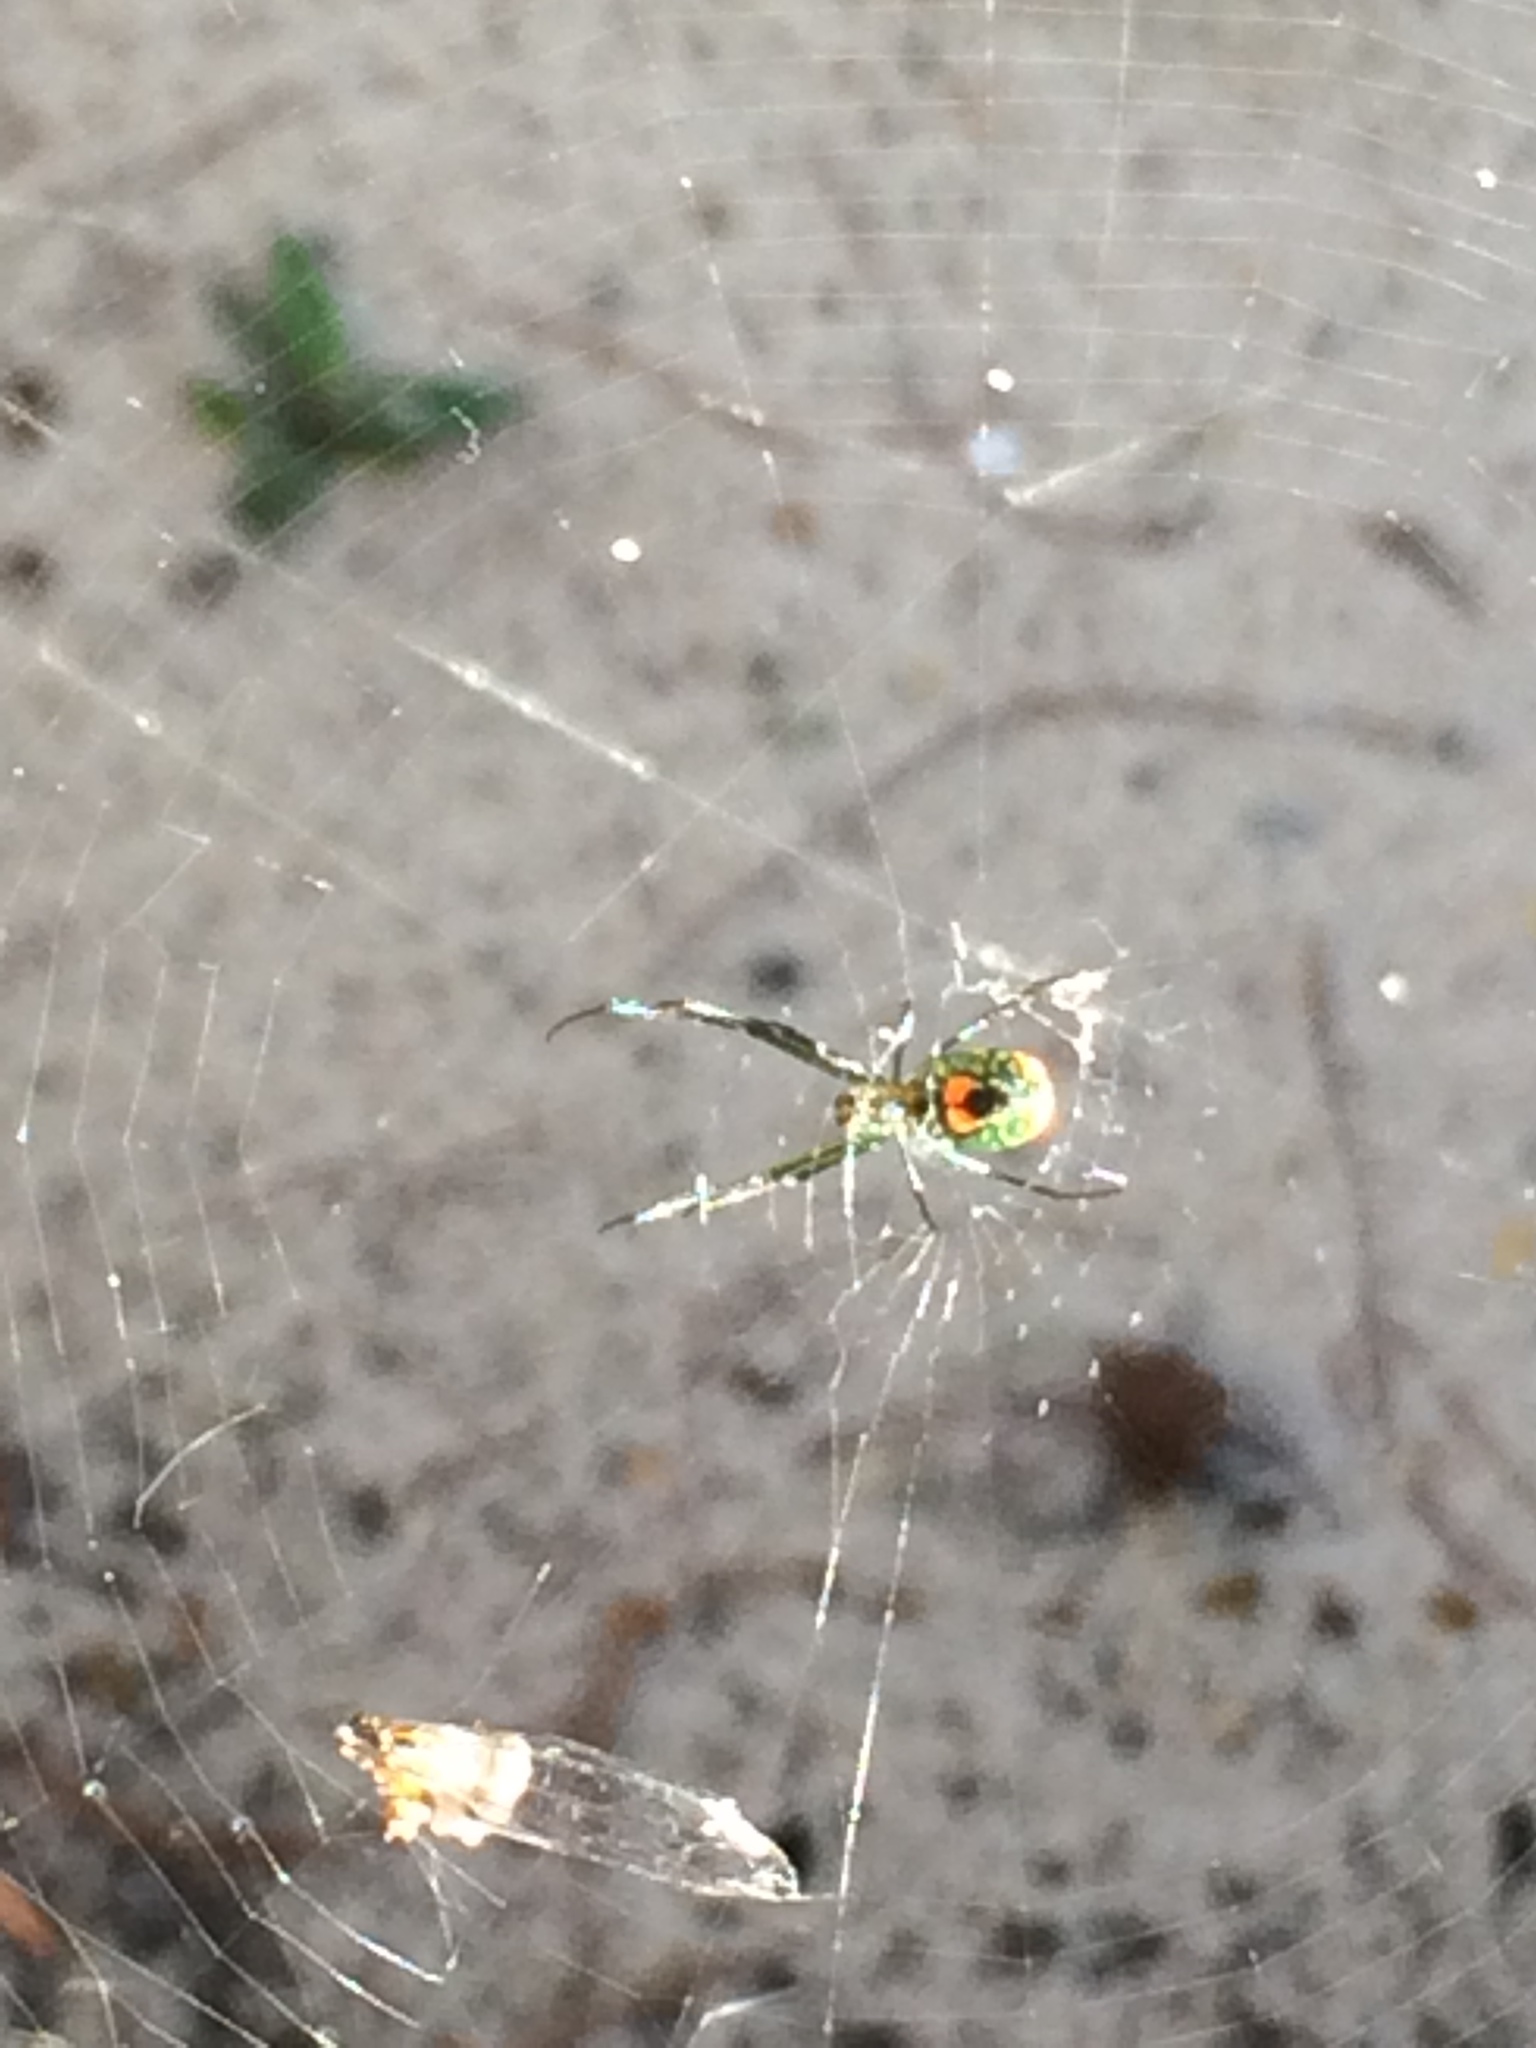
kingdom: Animalia
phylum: Arthropoda
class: Arachnida
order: Araneae
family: Tetragnathidae
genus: Leucauge
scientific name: Leucauge argyrobapta
